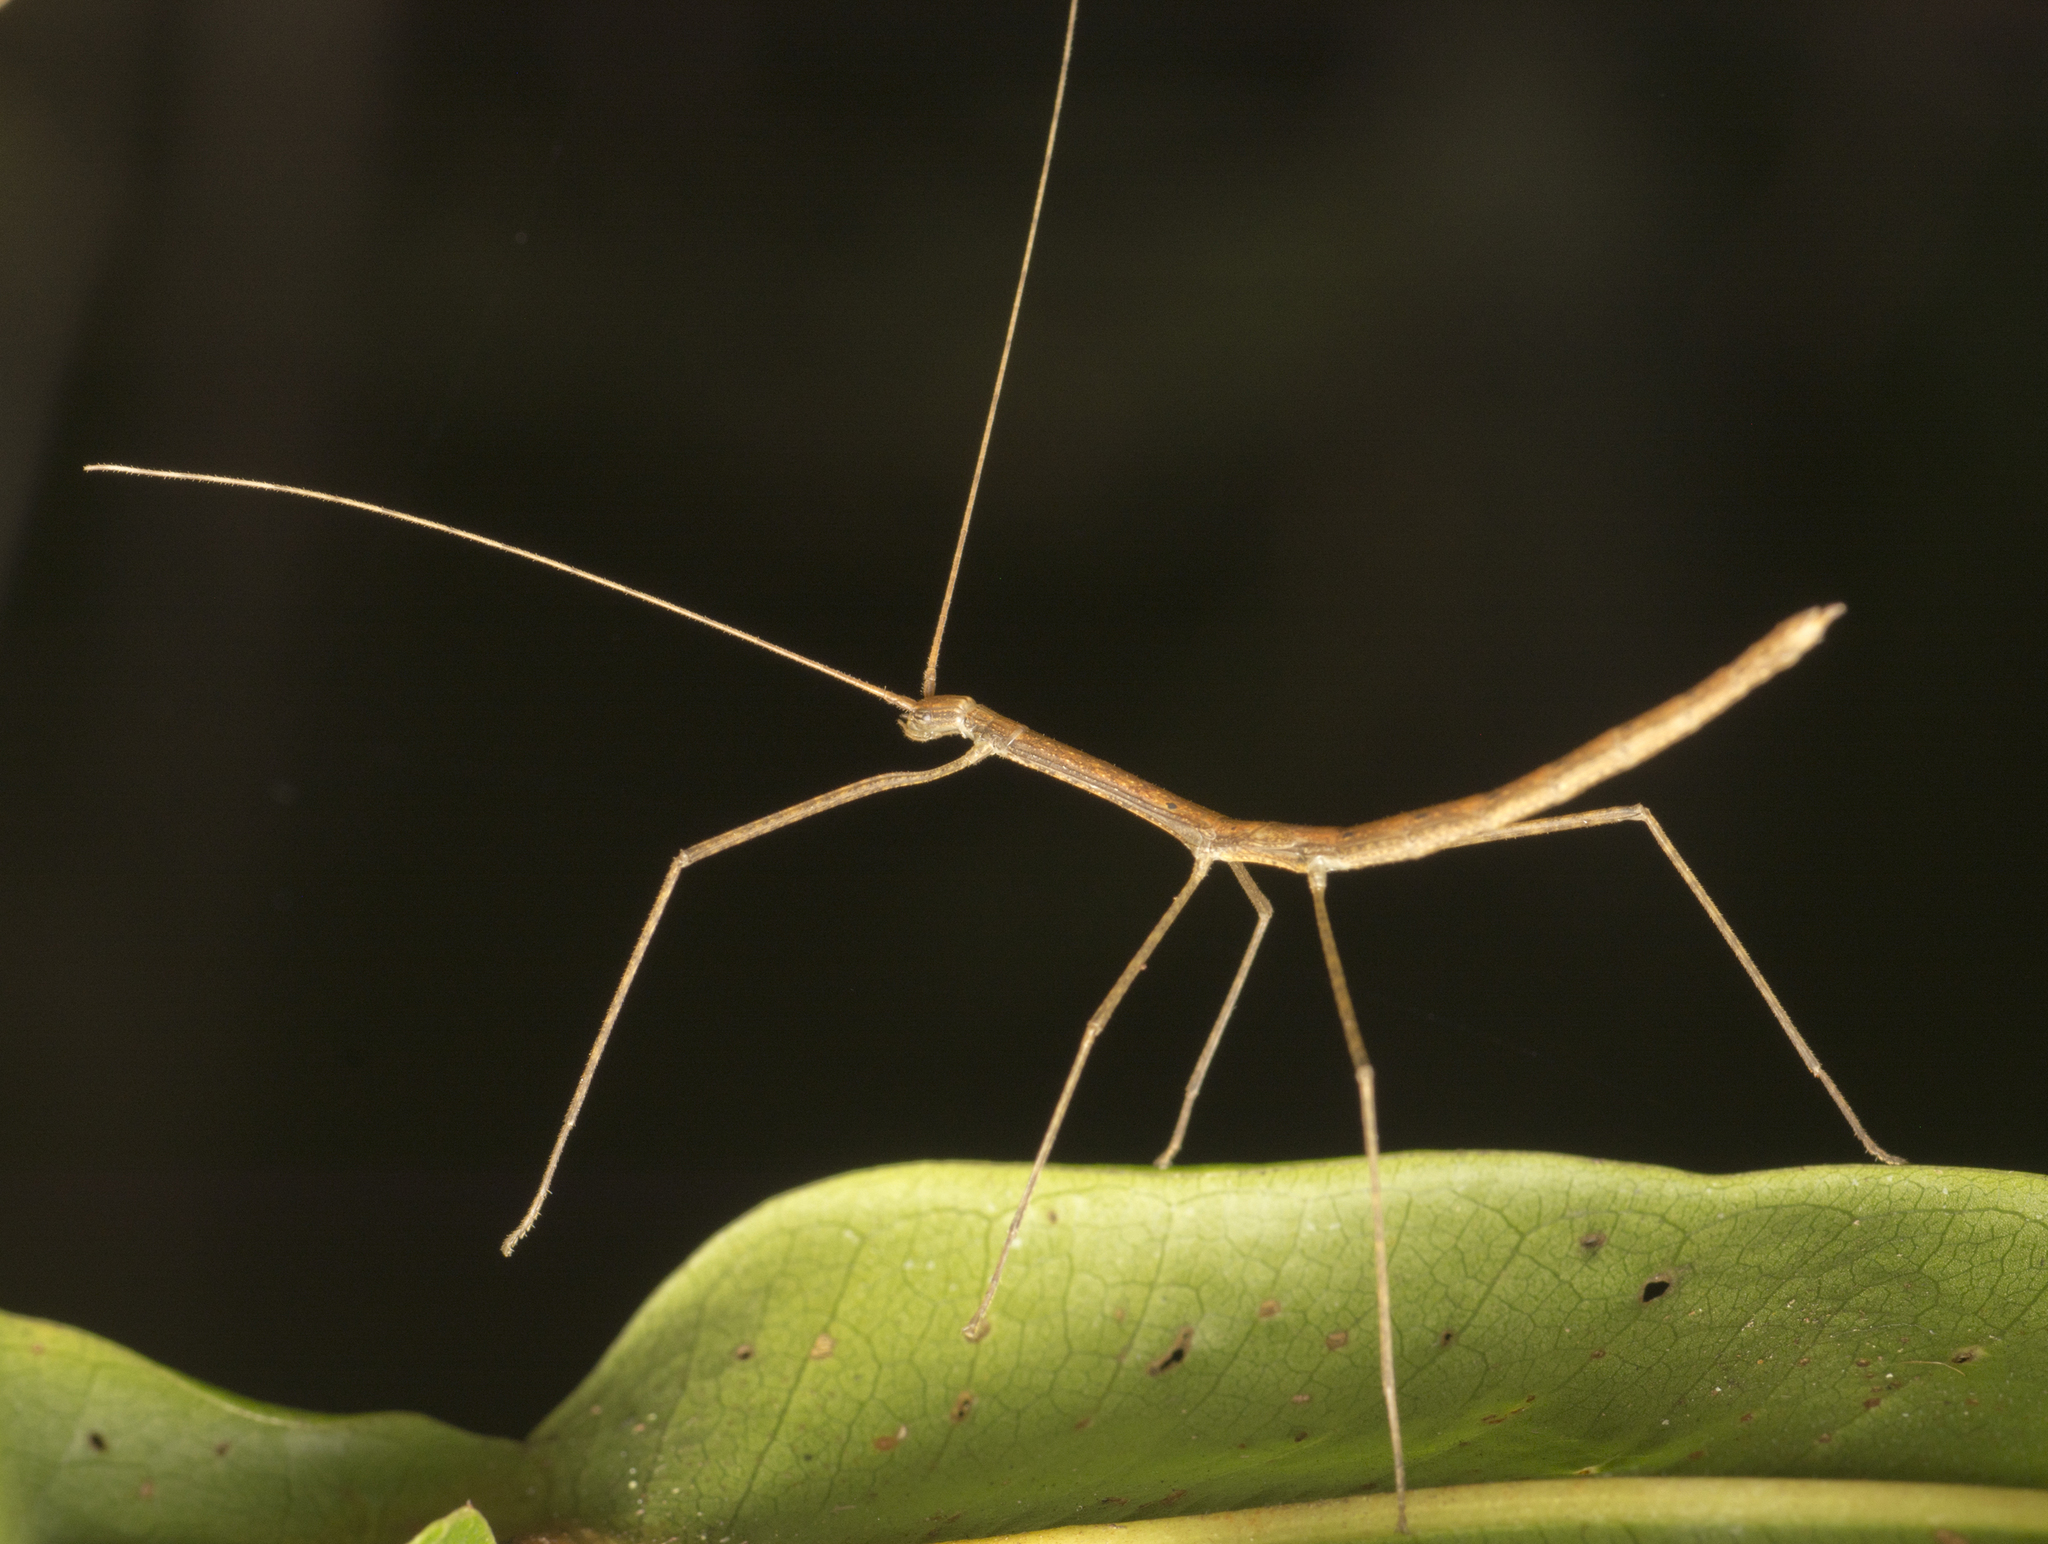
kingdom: Animalia
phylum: Arthropoda
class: Insecta
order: Phasmida
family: Lonchodidae
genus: Sipyloidea
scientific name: Sipyloidea larryi
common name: Hurricane larry stick-insect
